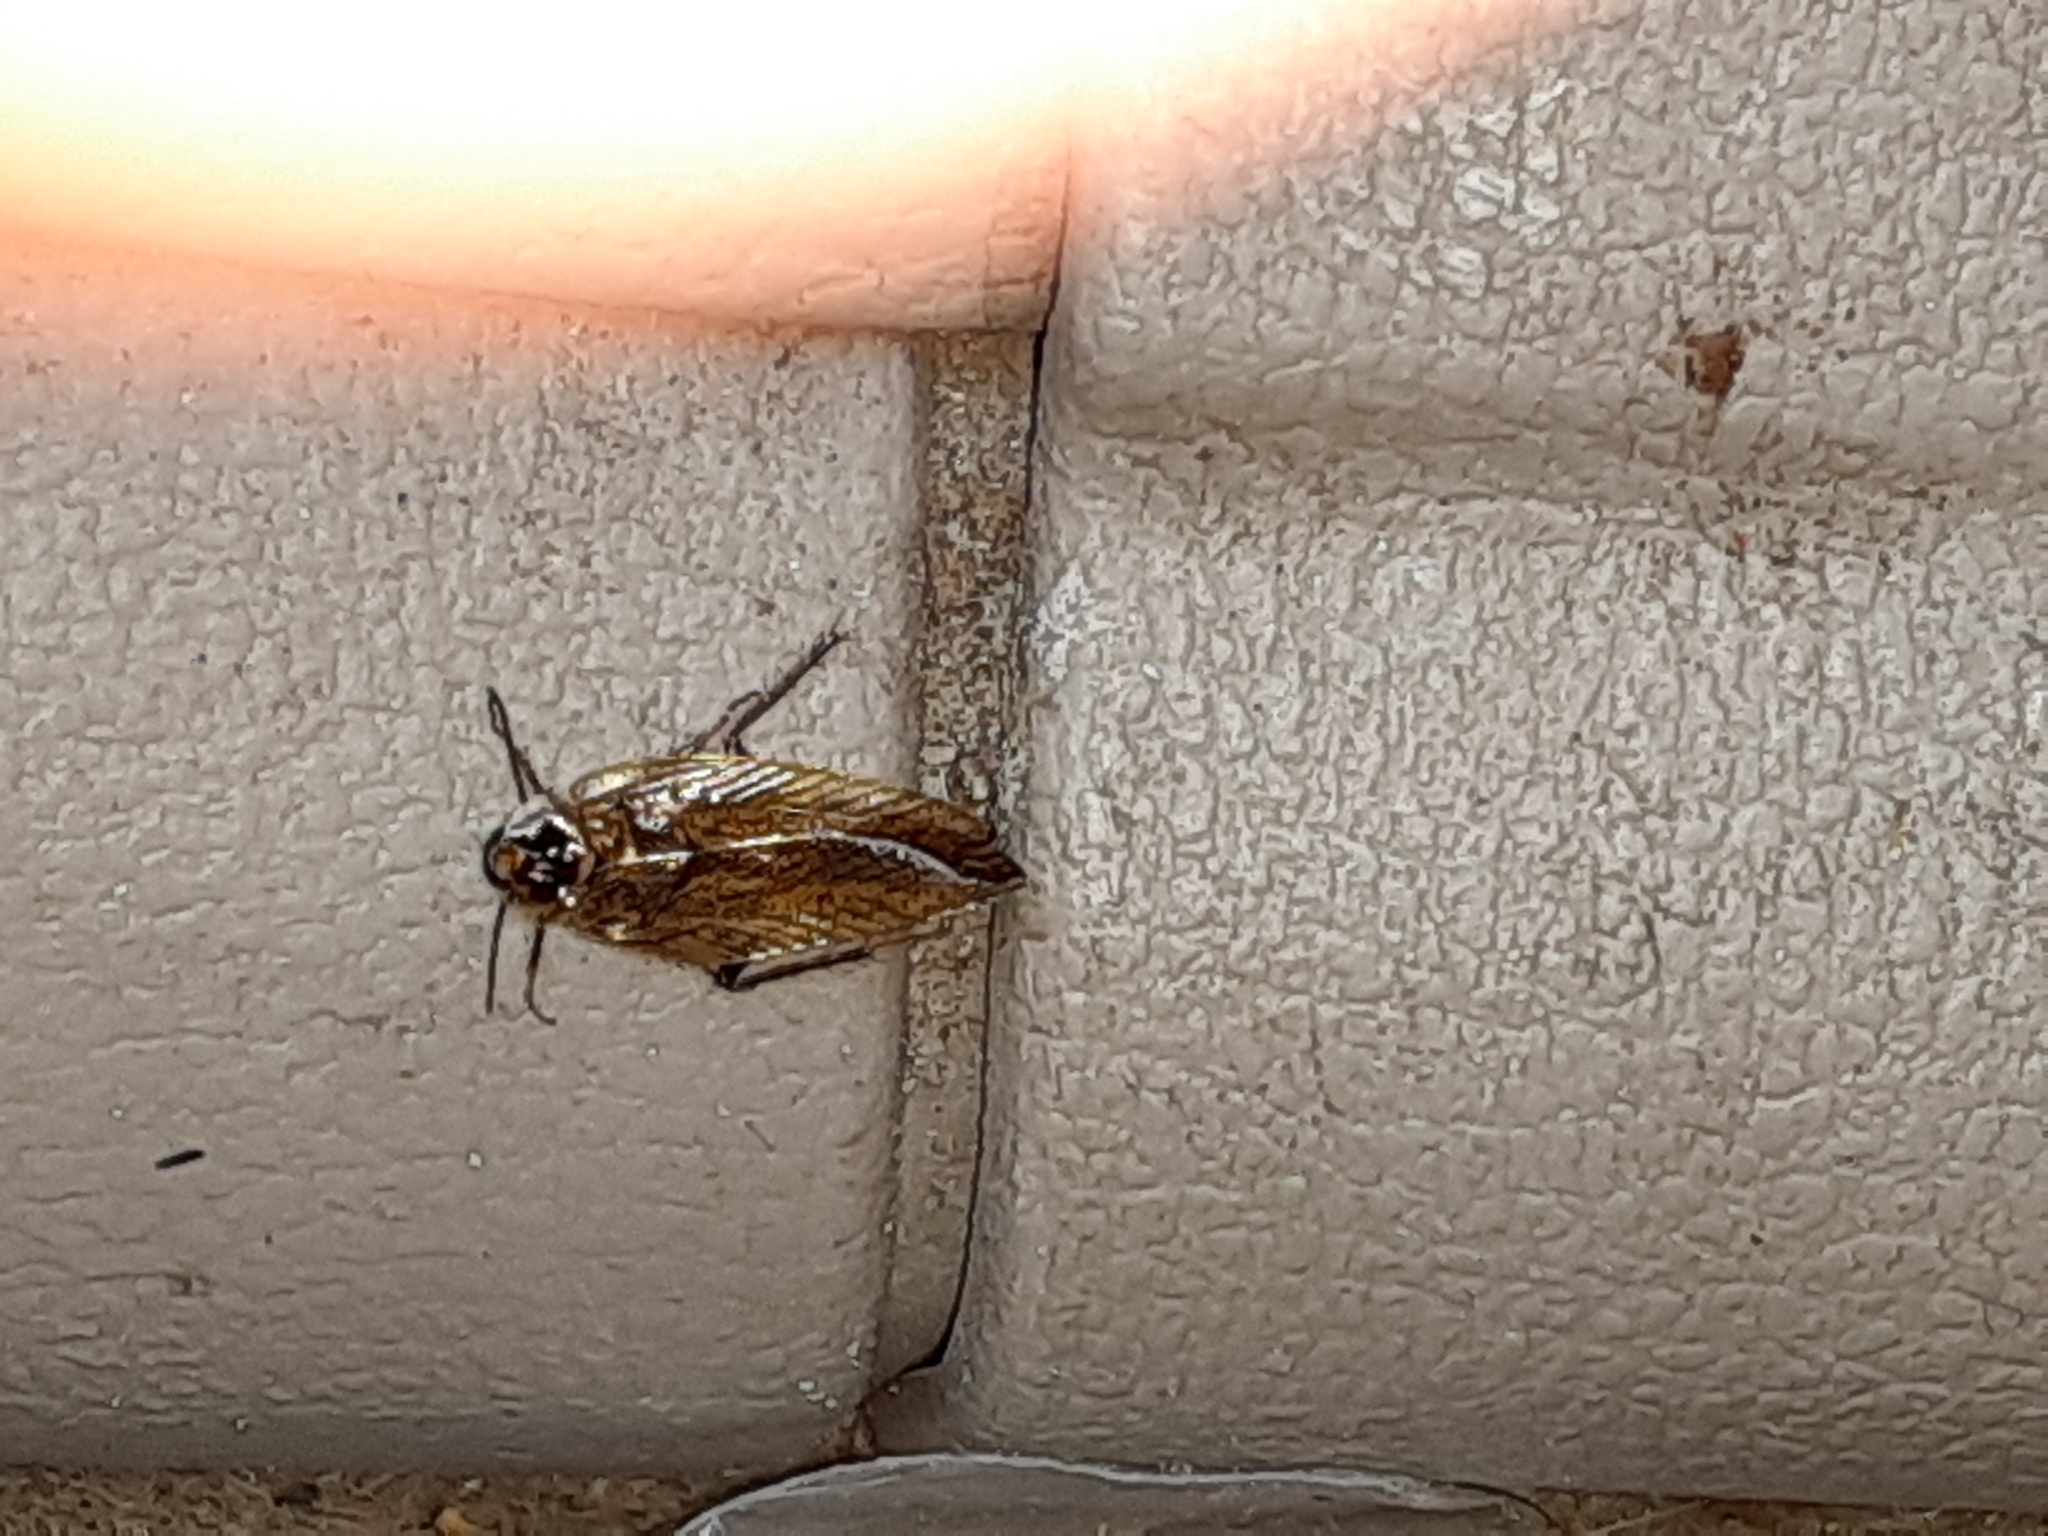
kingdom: Animalia
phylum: Arthropoda
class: Insecta
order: Blattodea
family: Ectobiidae
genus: Ectobius
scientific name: Ectobius lapponicus
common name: Dusky cockroach
